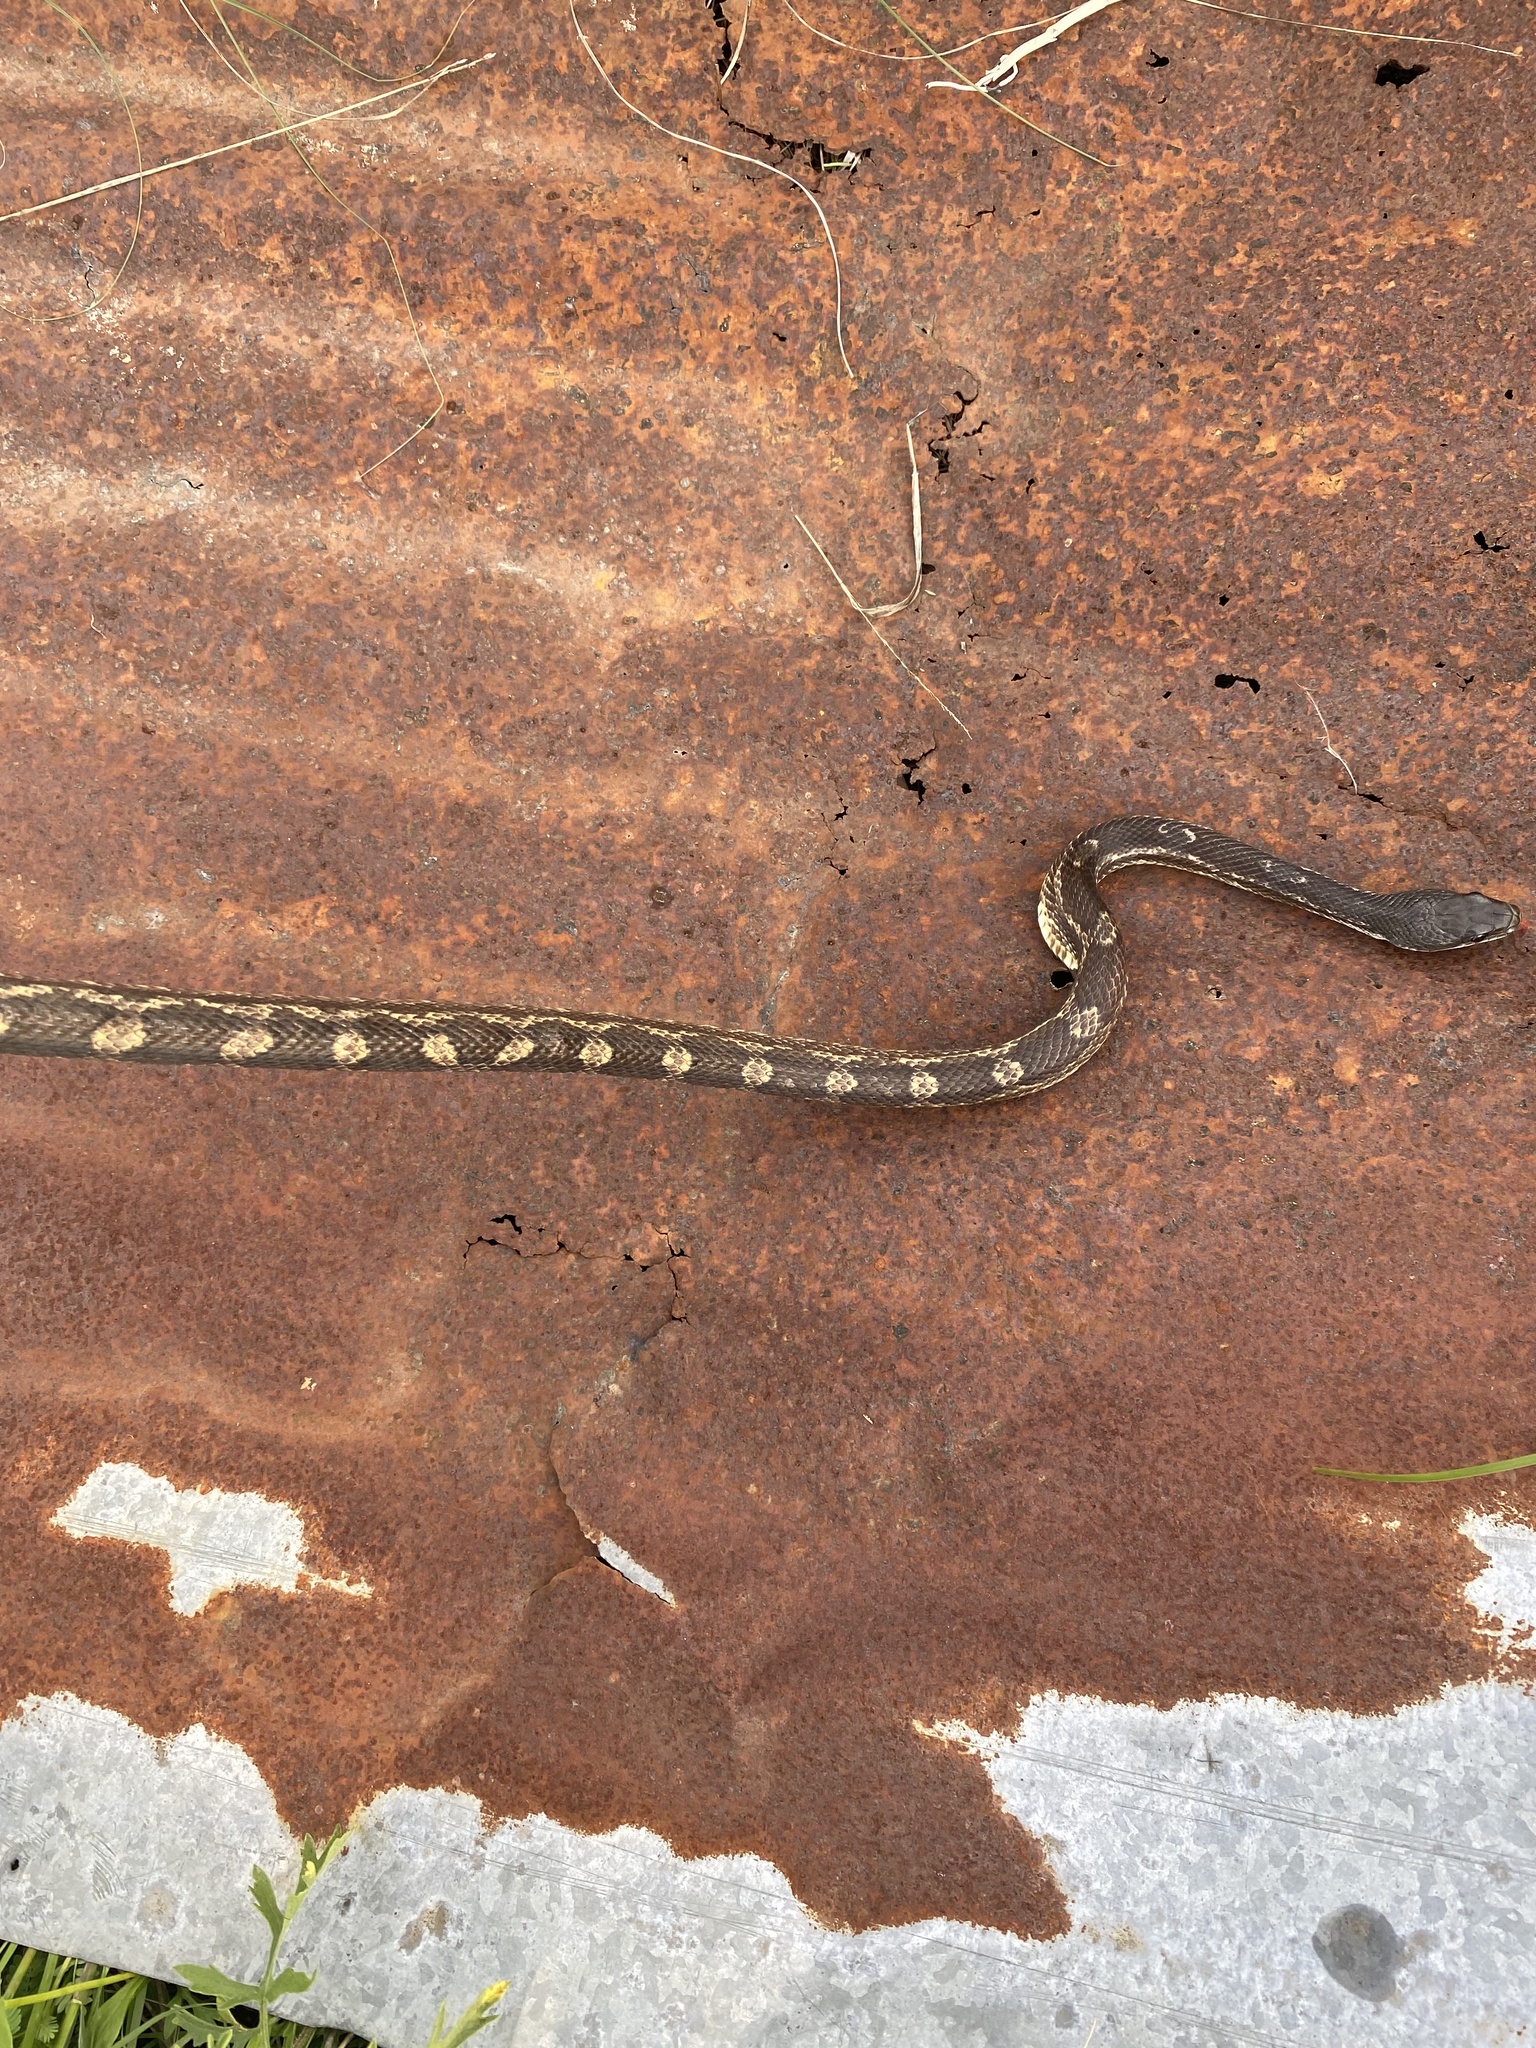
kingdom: Animalia
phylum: Chordata
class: Squamata
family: Colubridae
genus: Pantherophis
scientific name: Pantherophis obsoletus
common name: Black rat snake
